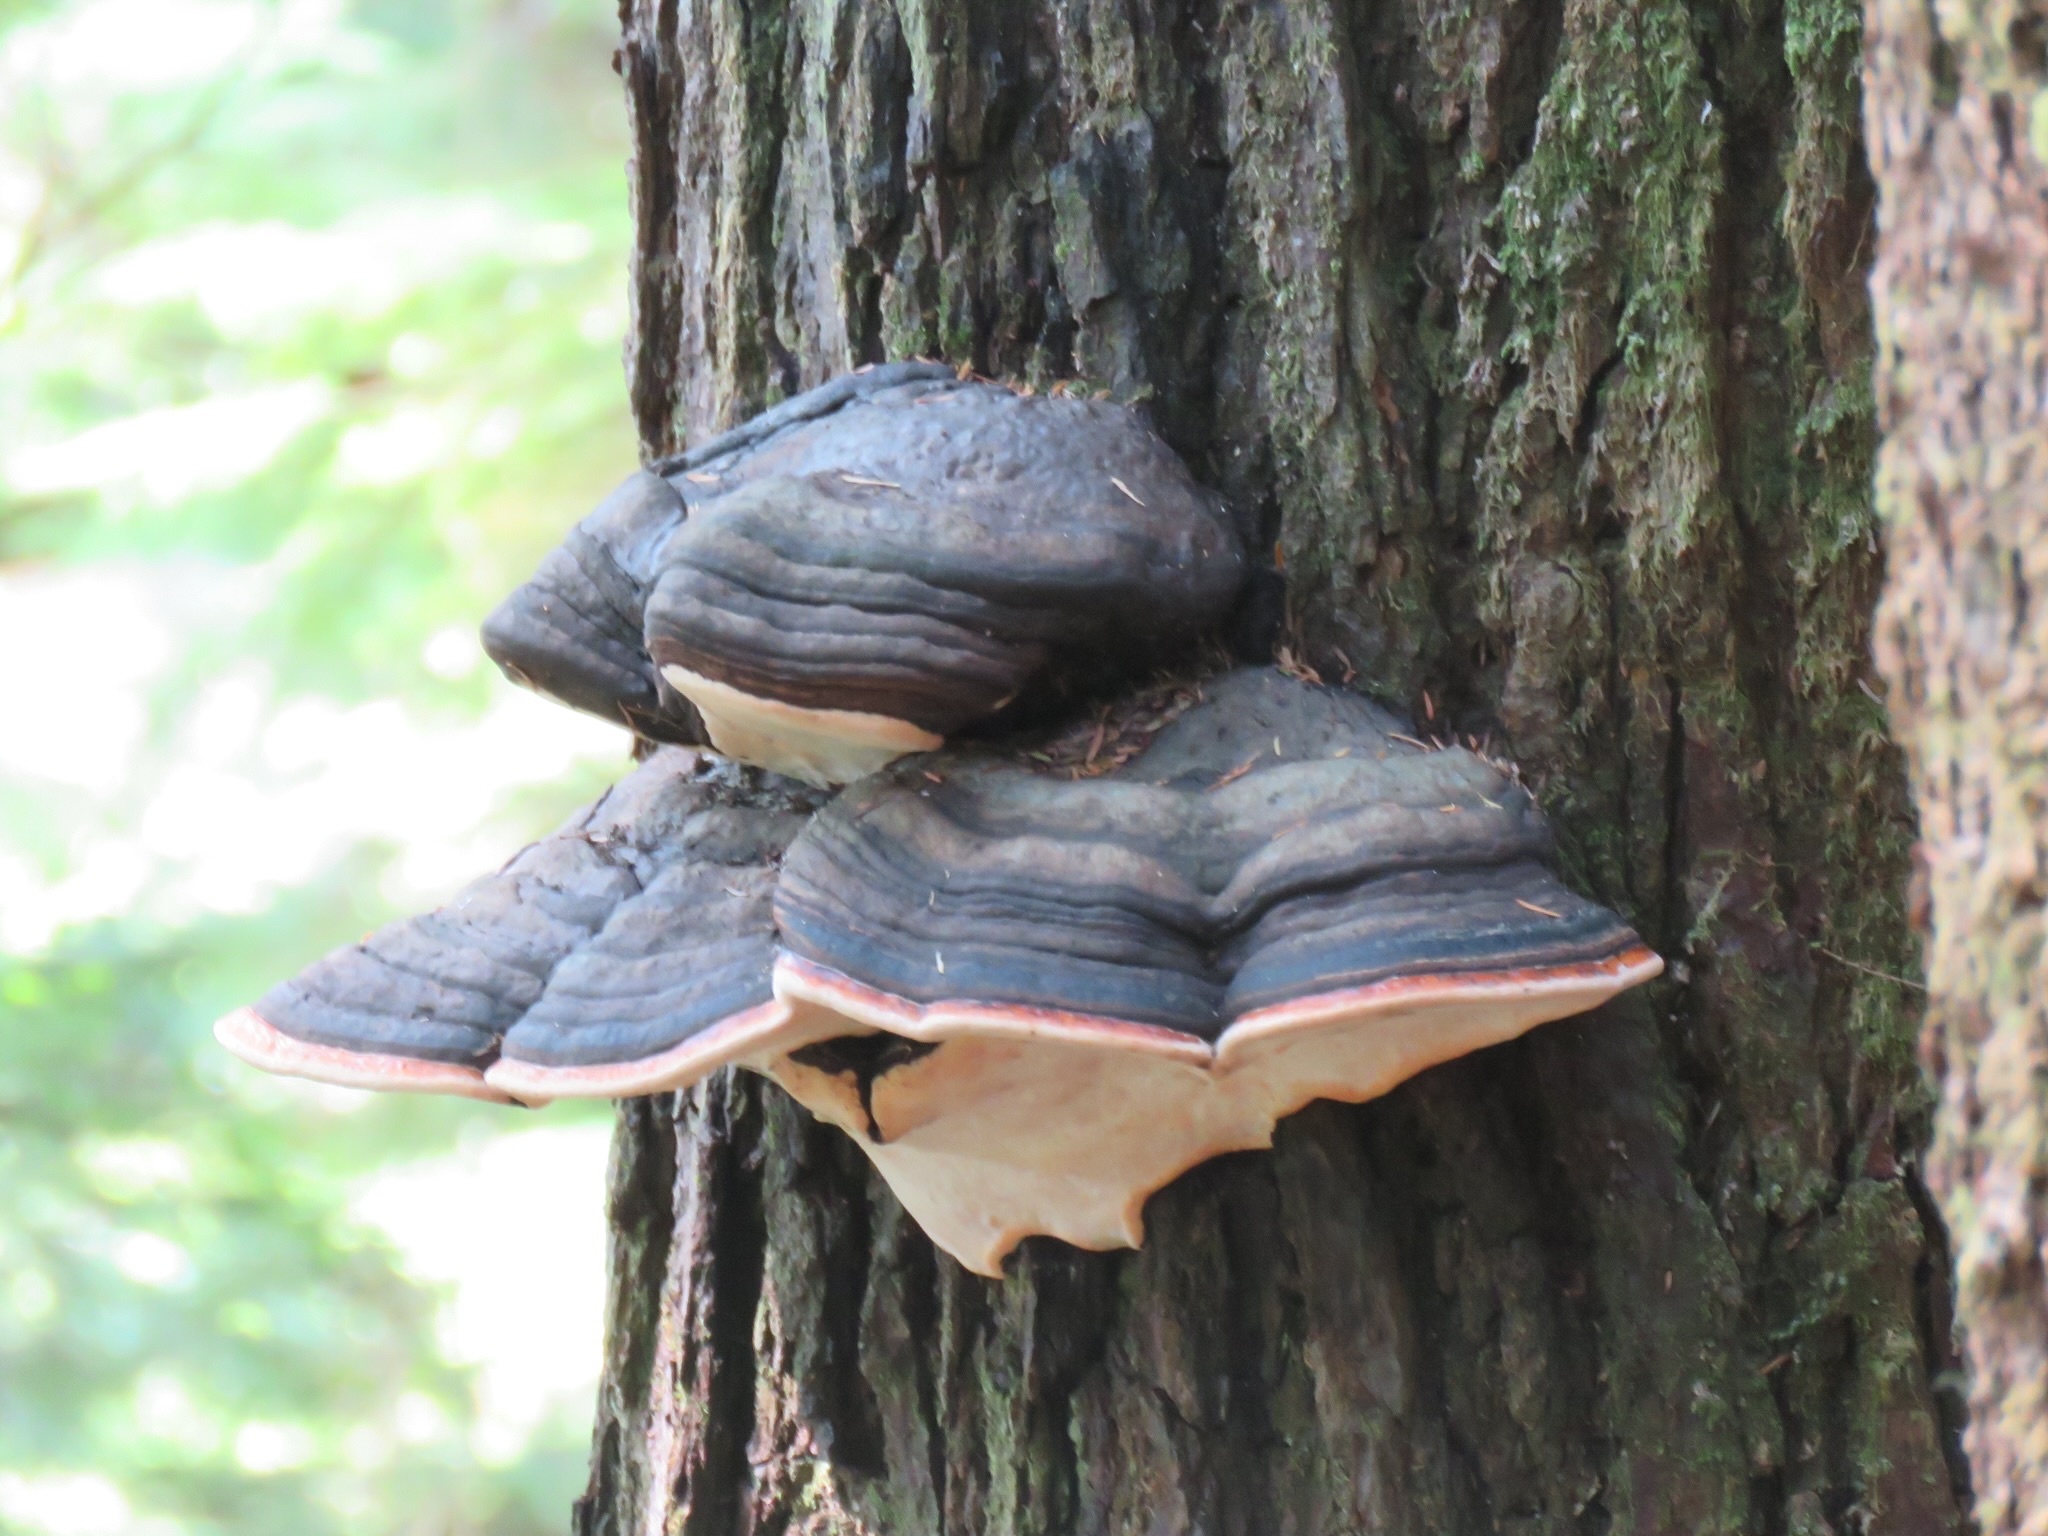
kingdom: Fungi
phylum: Basidiomycota
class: Agaricomycetes
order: Polyporales
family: Fomitopsidaceae
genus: Fomitopsis
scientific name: Fomitopsis mounceae
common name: Northern red belt
